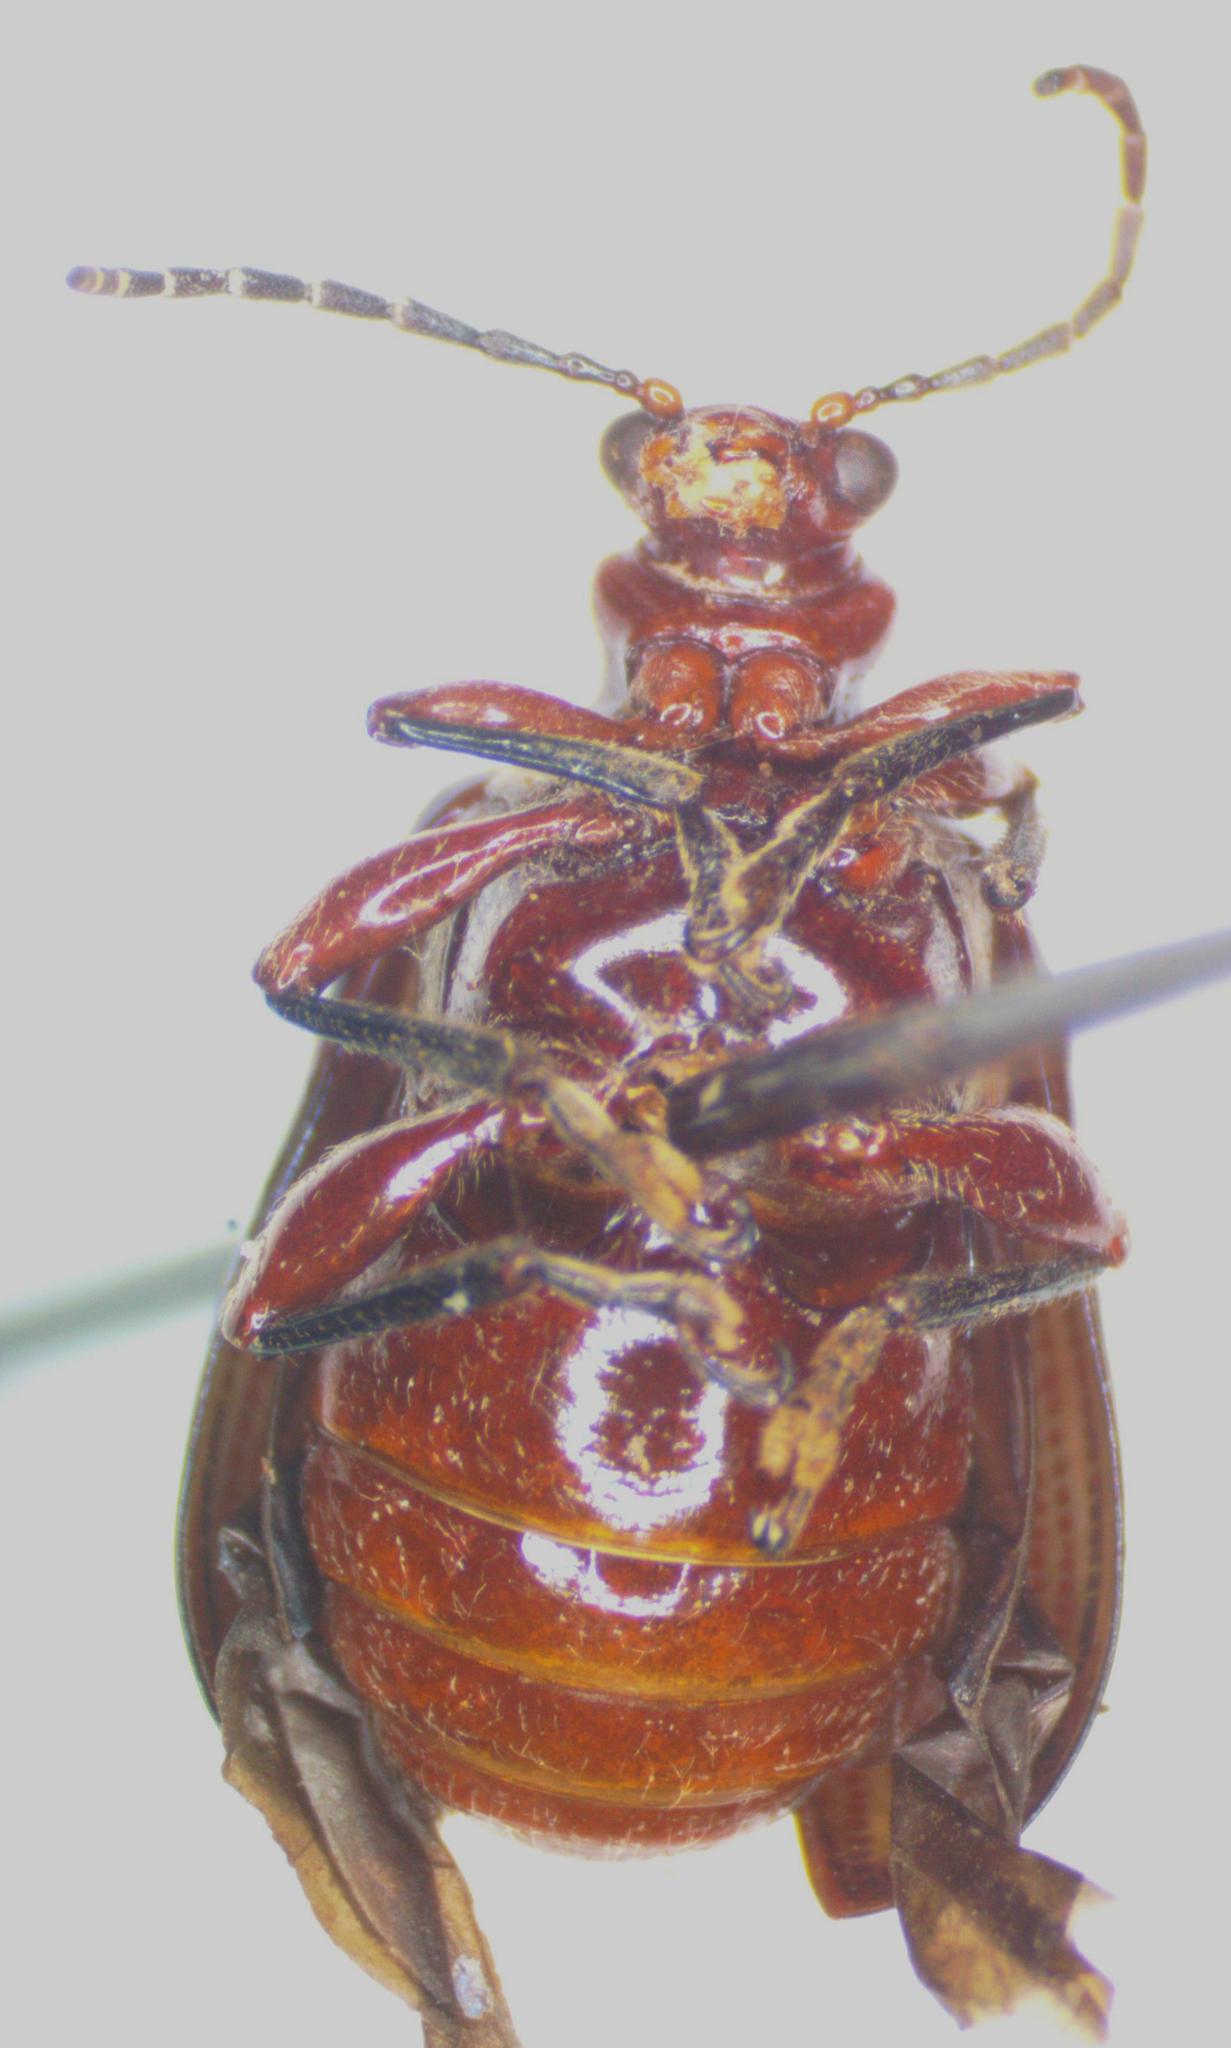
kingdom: Animalia
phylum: Arthropoda
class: Insecta
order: Coleoptera
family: Chrysomelidae
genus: Lema
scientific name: Lema bouchardi
